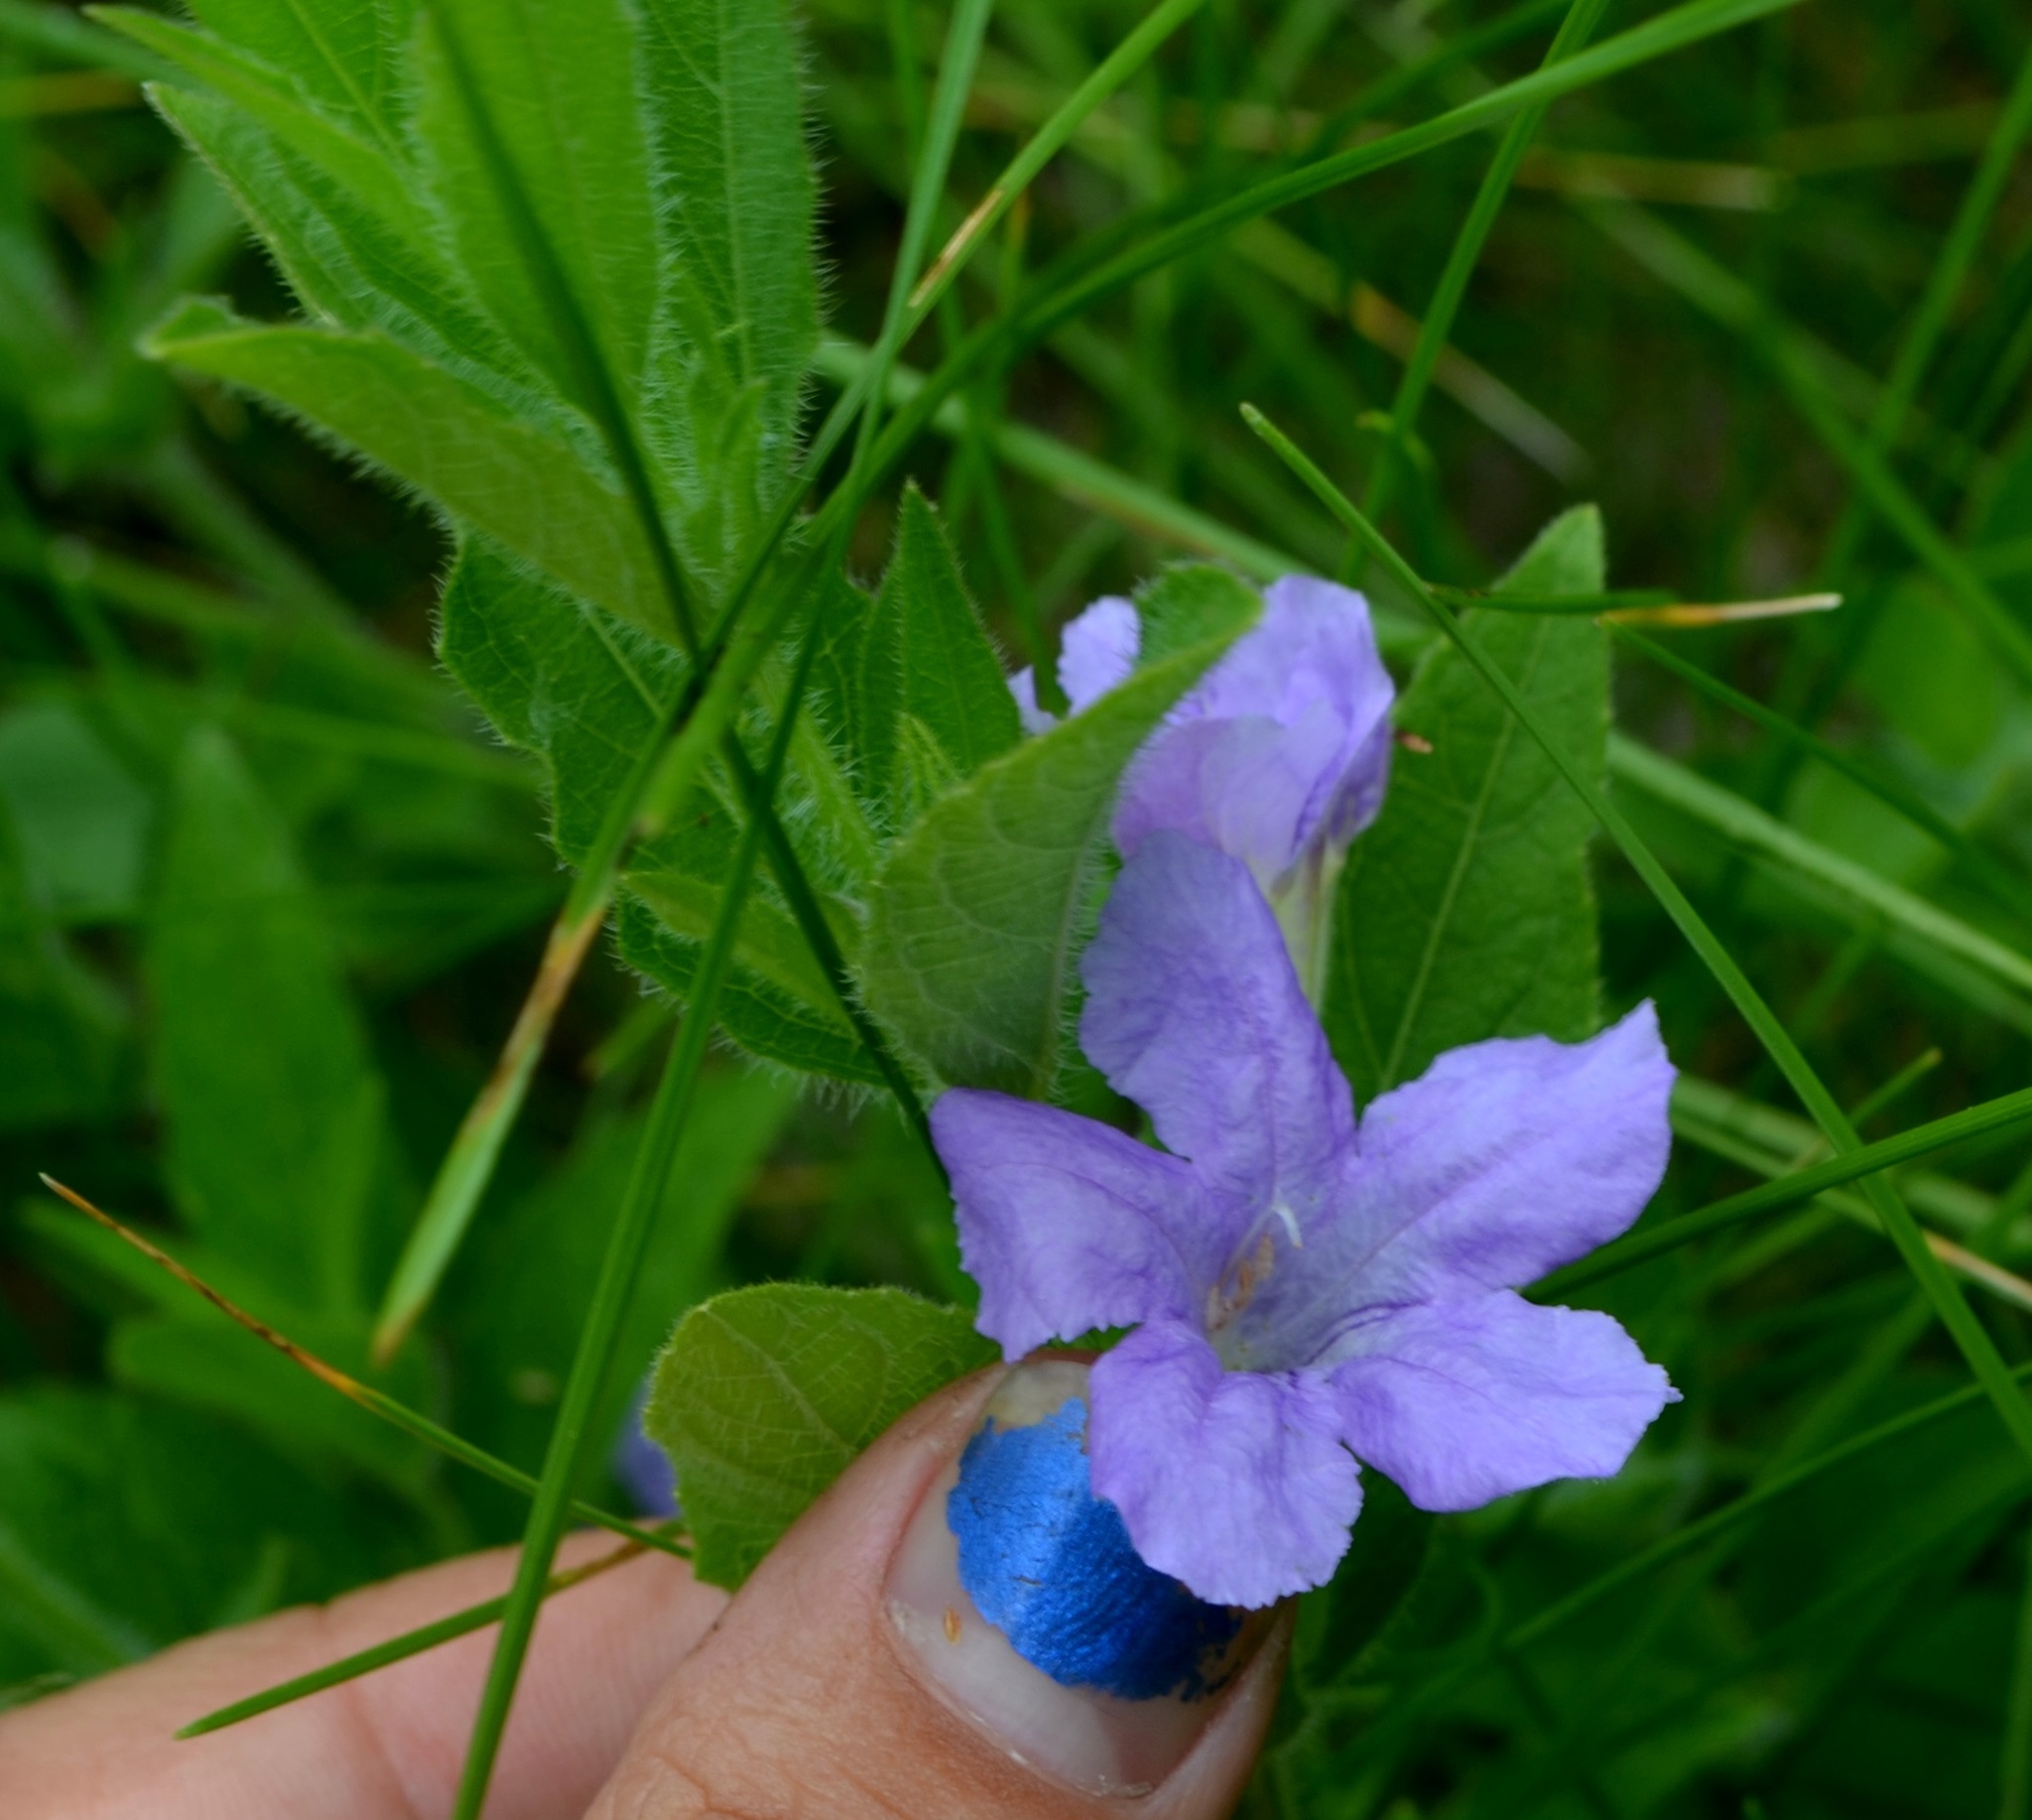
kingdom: Plantae
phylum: Tracheophyta
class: Magnoliopsida
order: Lamiales
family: Acanthaceae
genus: Ruellia
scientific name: Ruellia humilis
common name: Fringe-leaf ruellia
